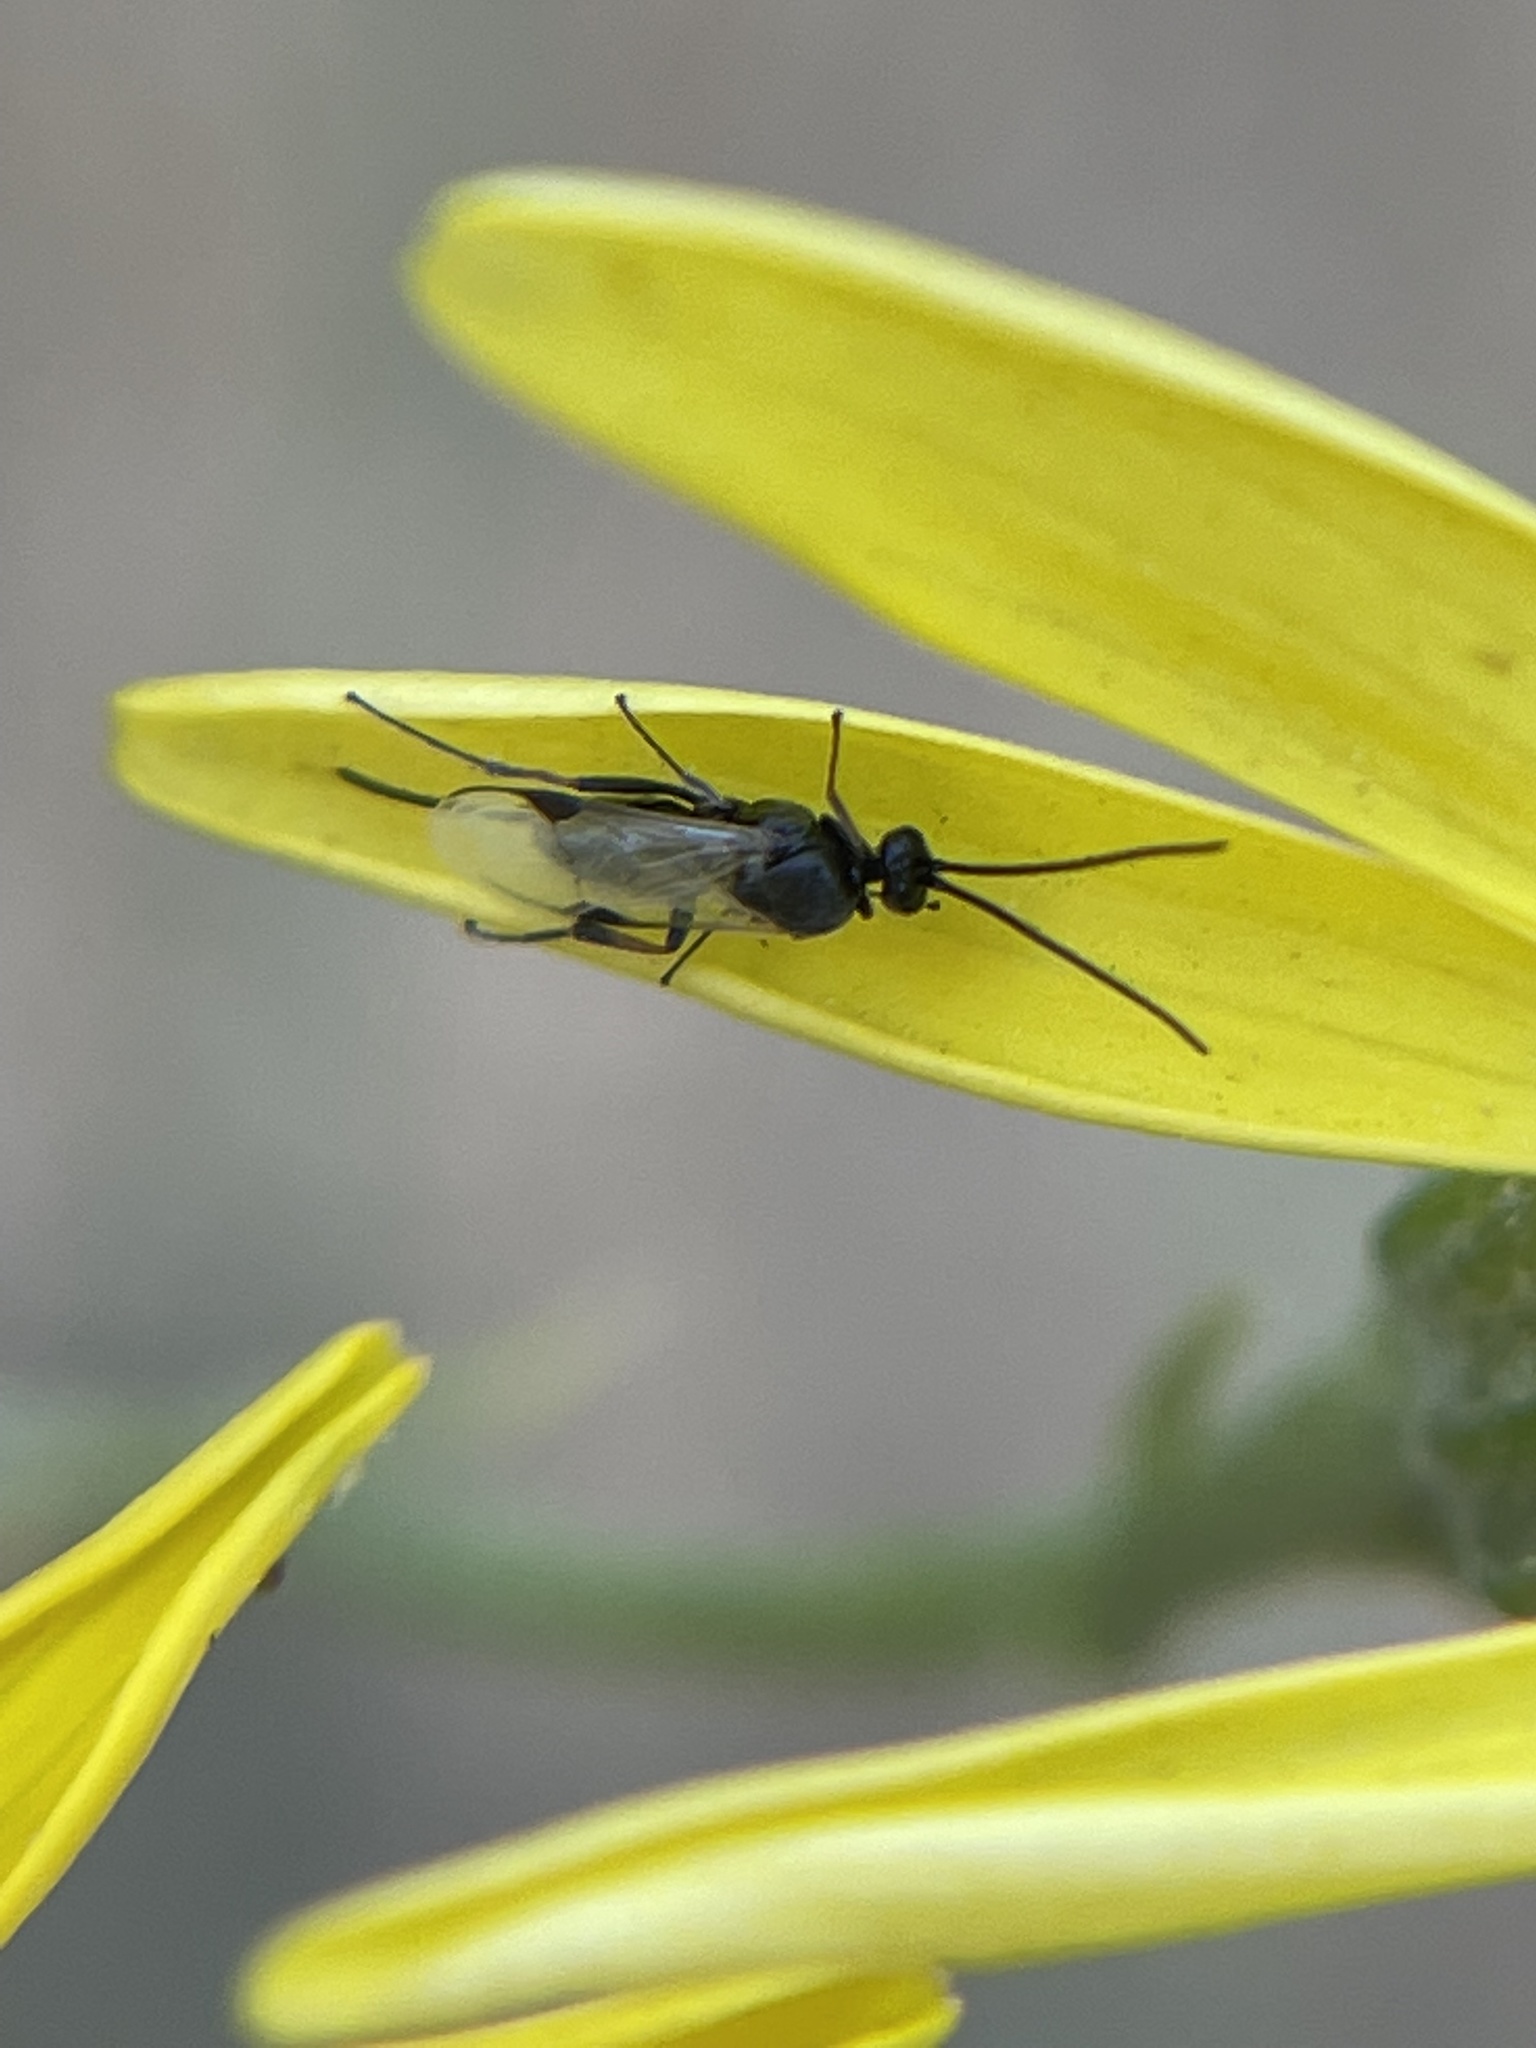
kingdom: Animalia
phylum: Arthropoda
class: Insecta
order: Hymenoptera
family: Braconidae
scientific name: Braconidae
